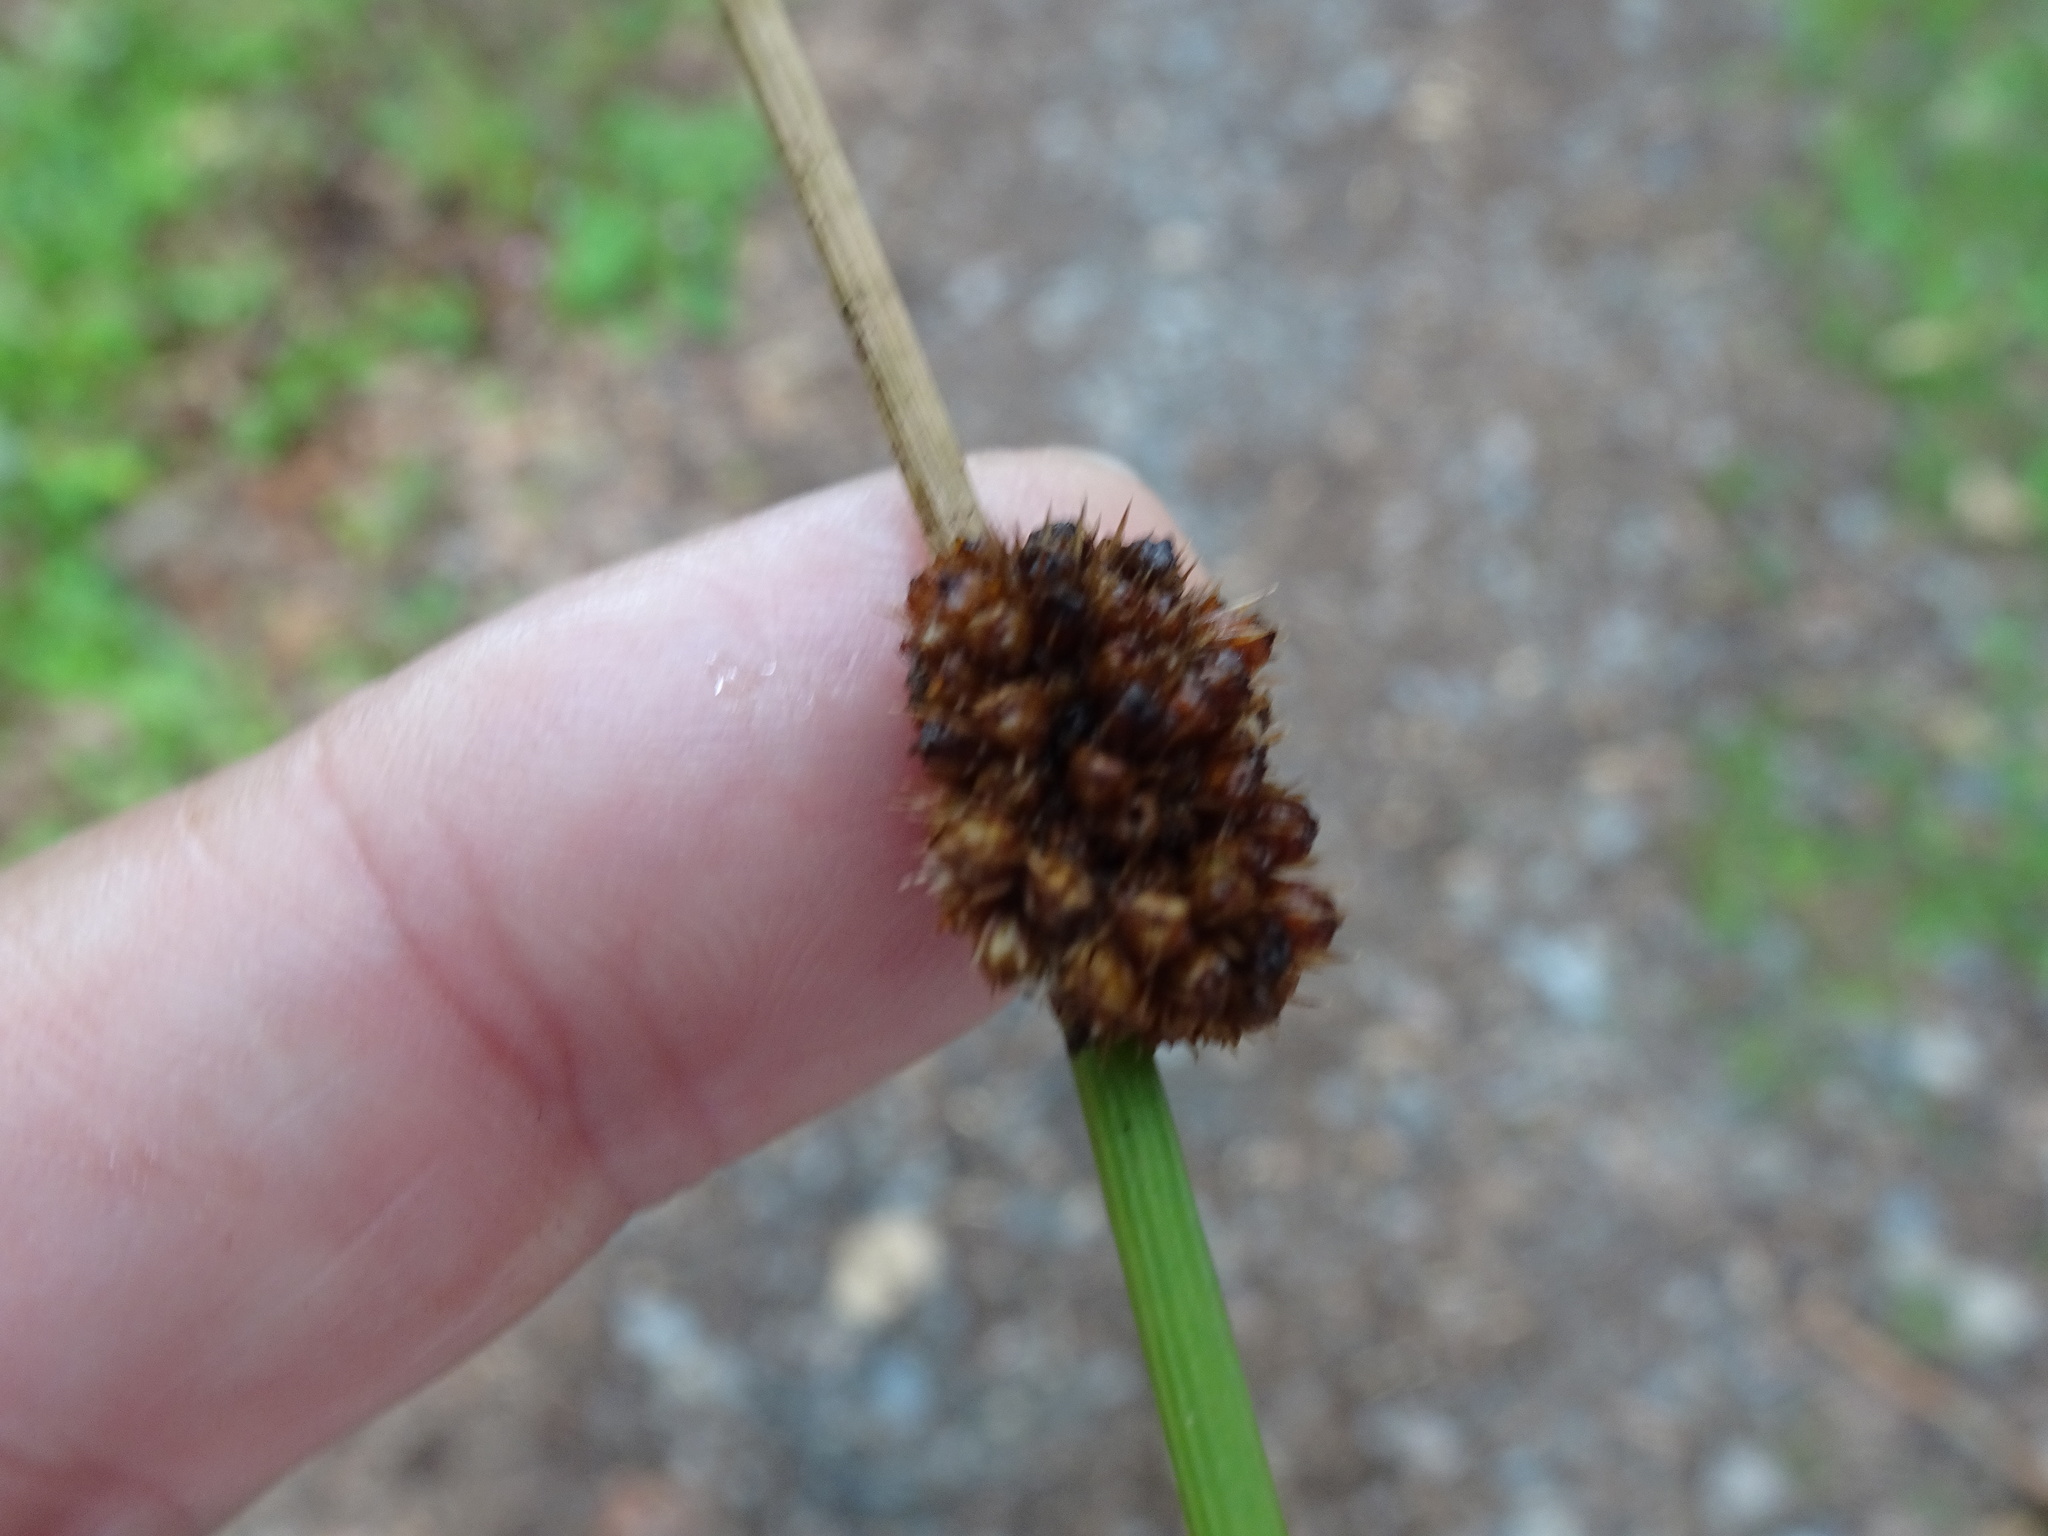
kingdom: Plantae
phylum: Tracheophyta
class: Liliopsida
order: Poales
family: Juncaceae
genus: Juncus
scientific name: Juncus conglomeratus
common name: Compact rush
